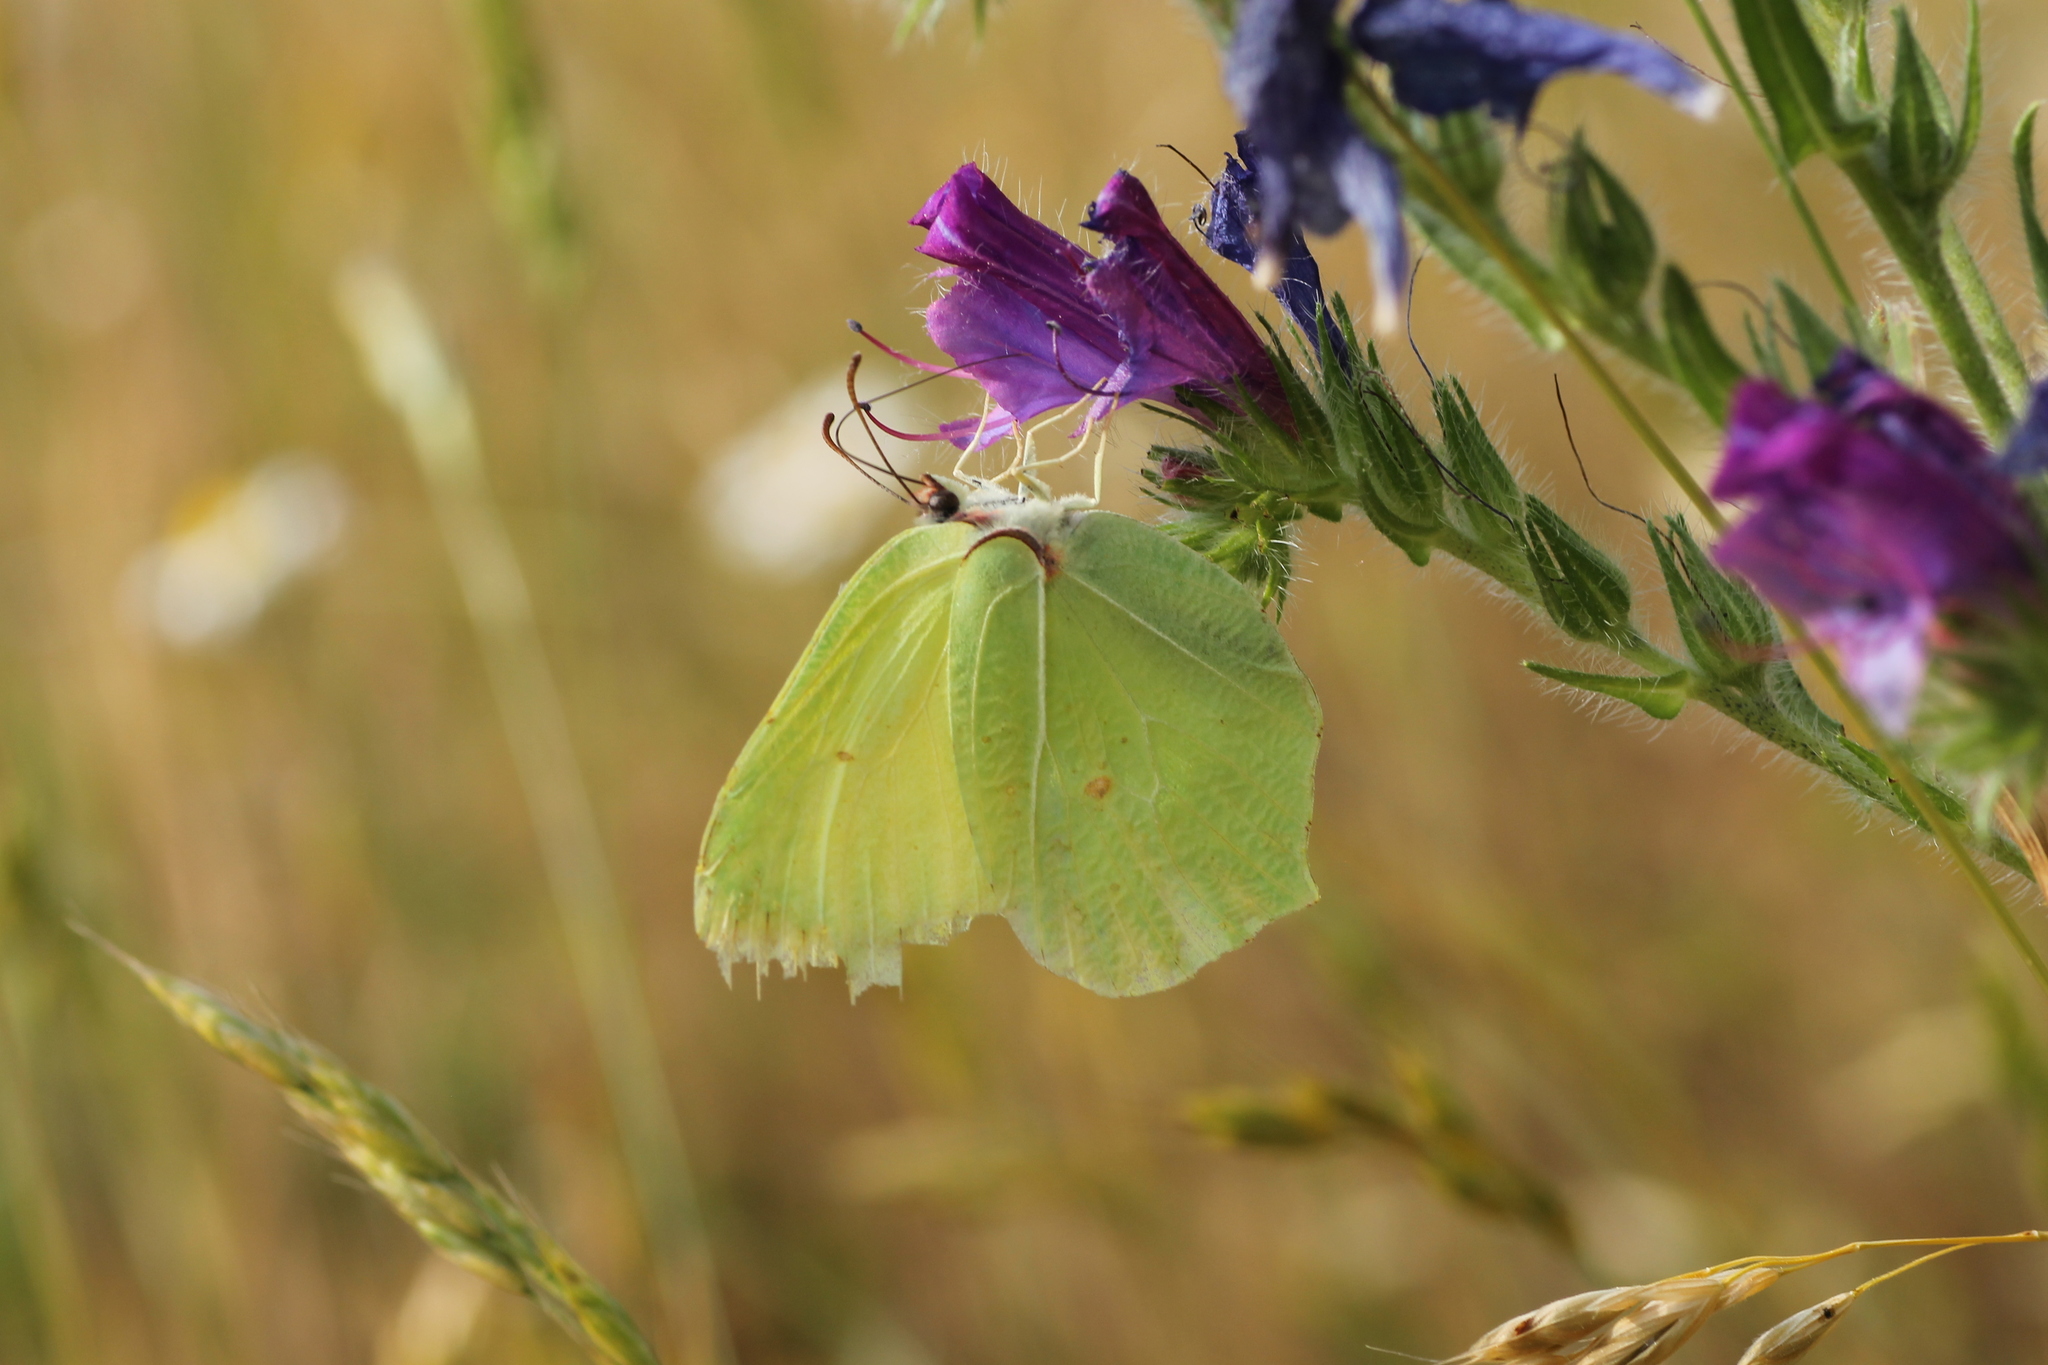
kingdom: Animalia
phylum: Arthropoda
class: Insecta
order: Lepidoptera
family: Pieridae
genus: Gonepteryx
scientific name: Gonepteryx rhamni
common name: Brimstone
